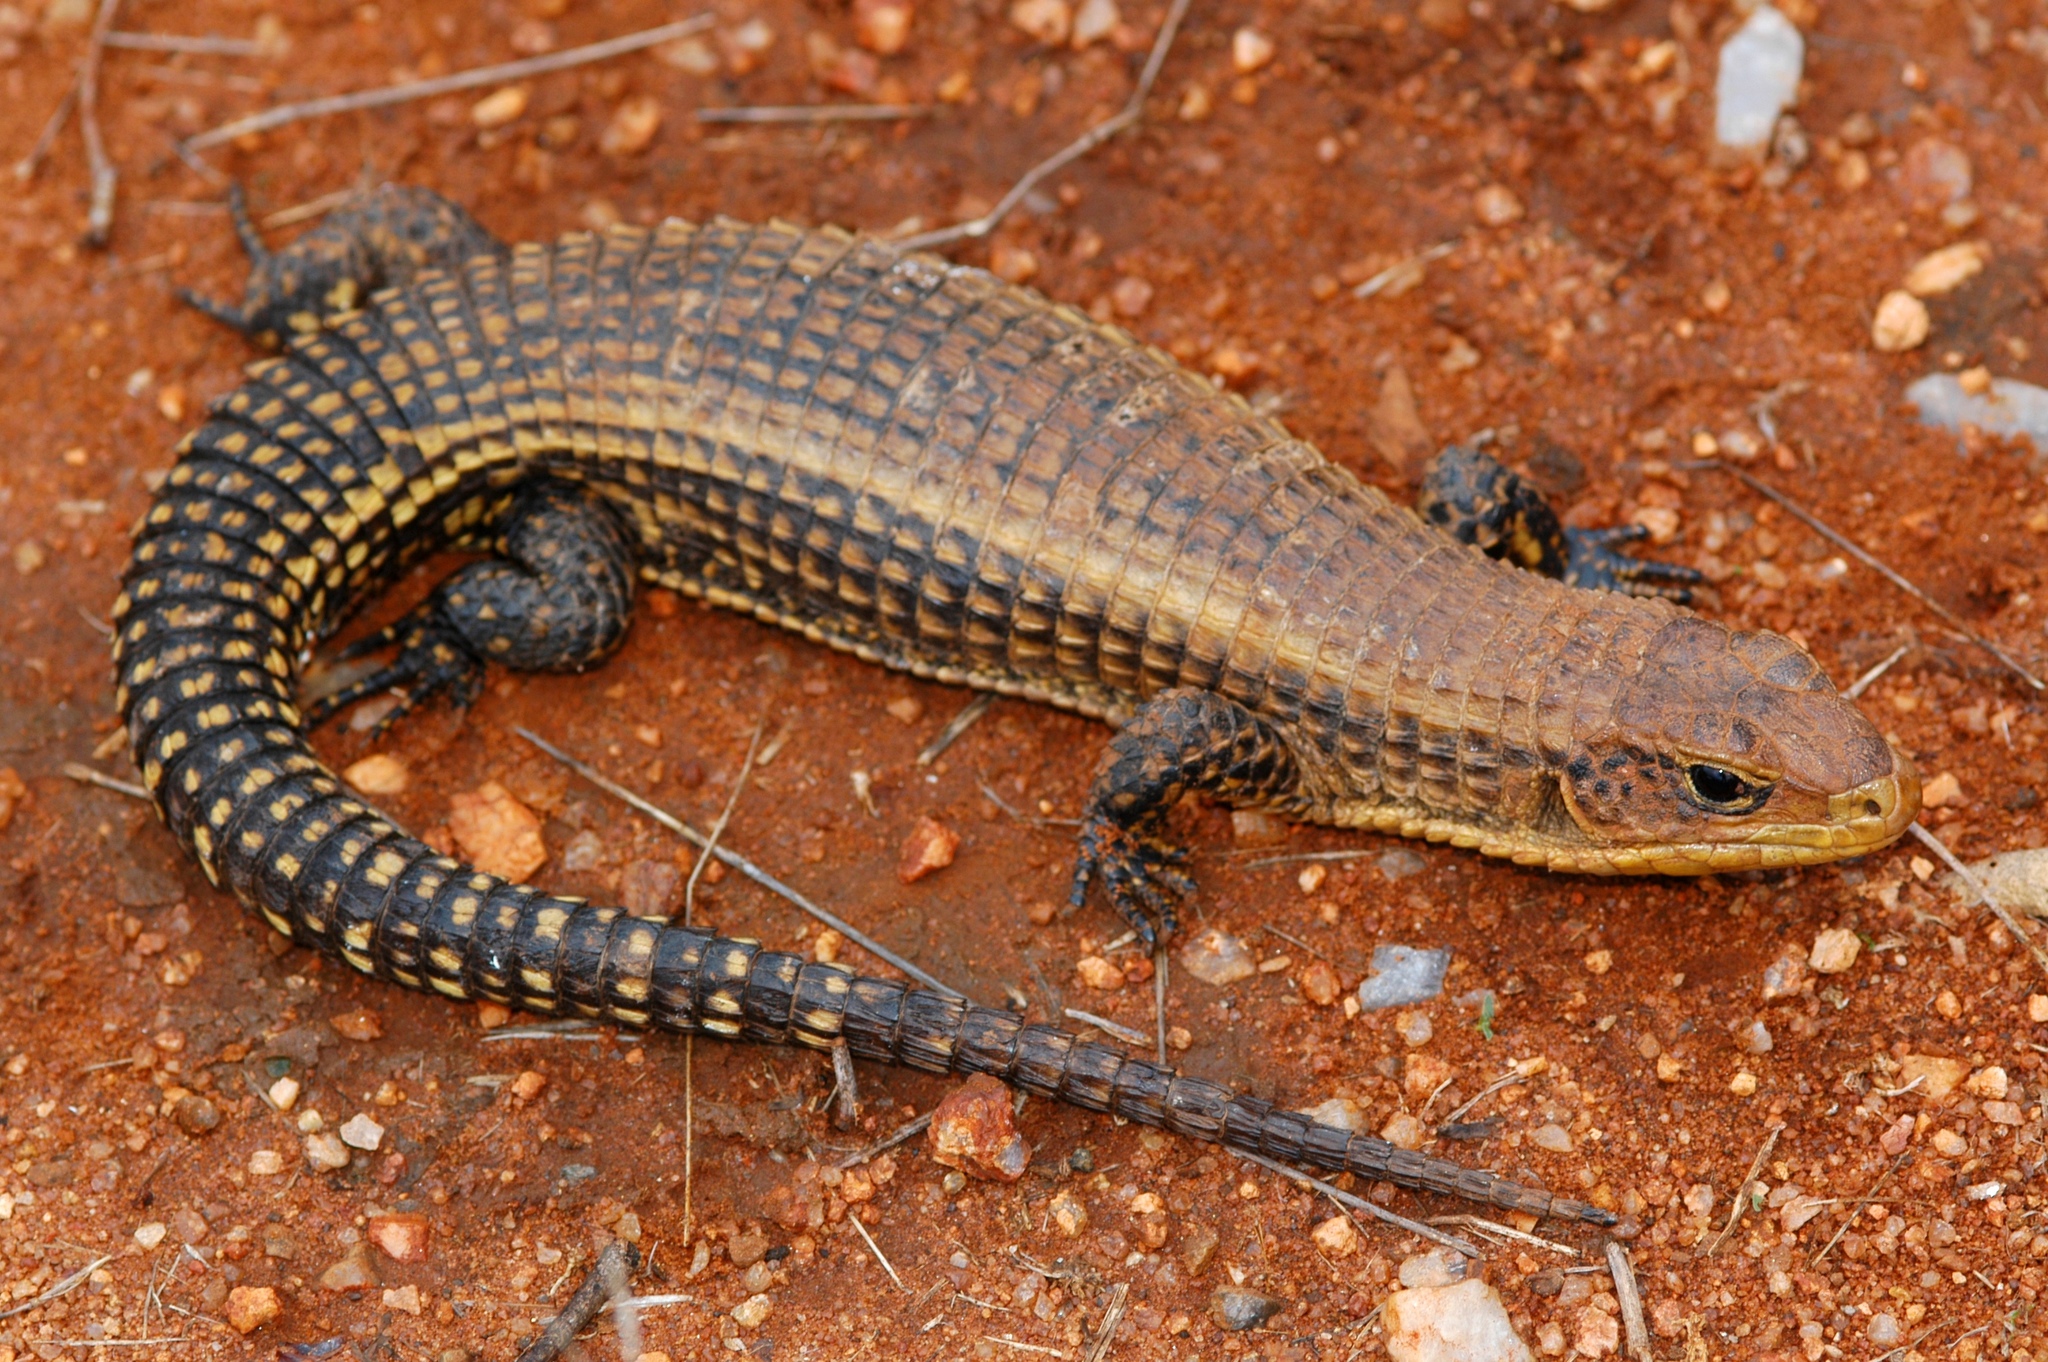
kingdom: Animalia
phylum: Chordata
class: Squamata
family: Gerrhosauridae
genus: Broadleysaurus
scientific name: Broadleysaurus major
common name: Rough-scaled plated lizard
